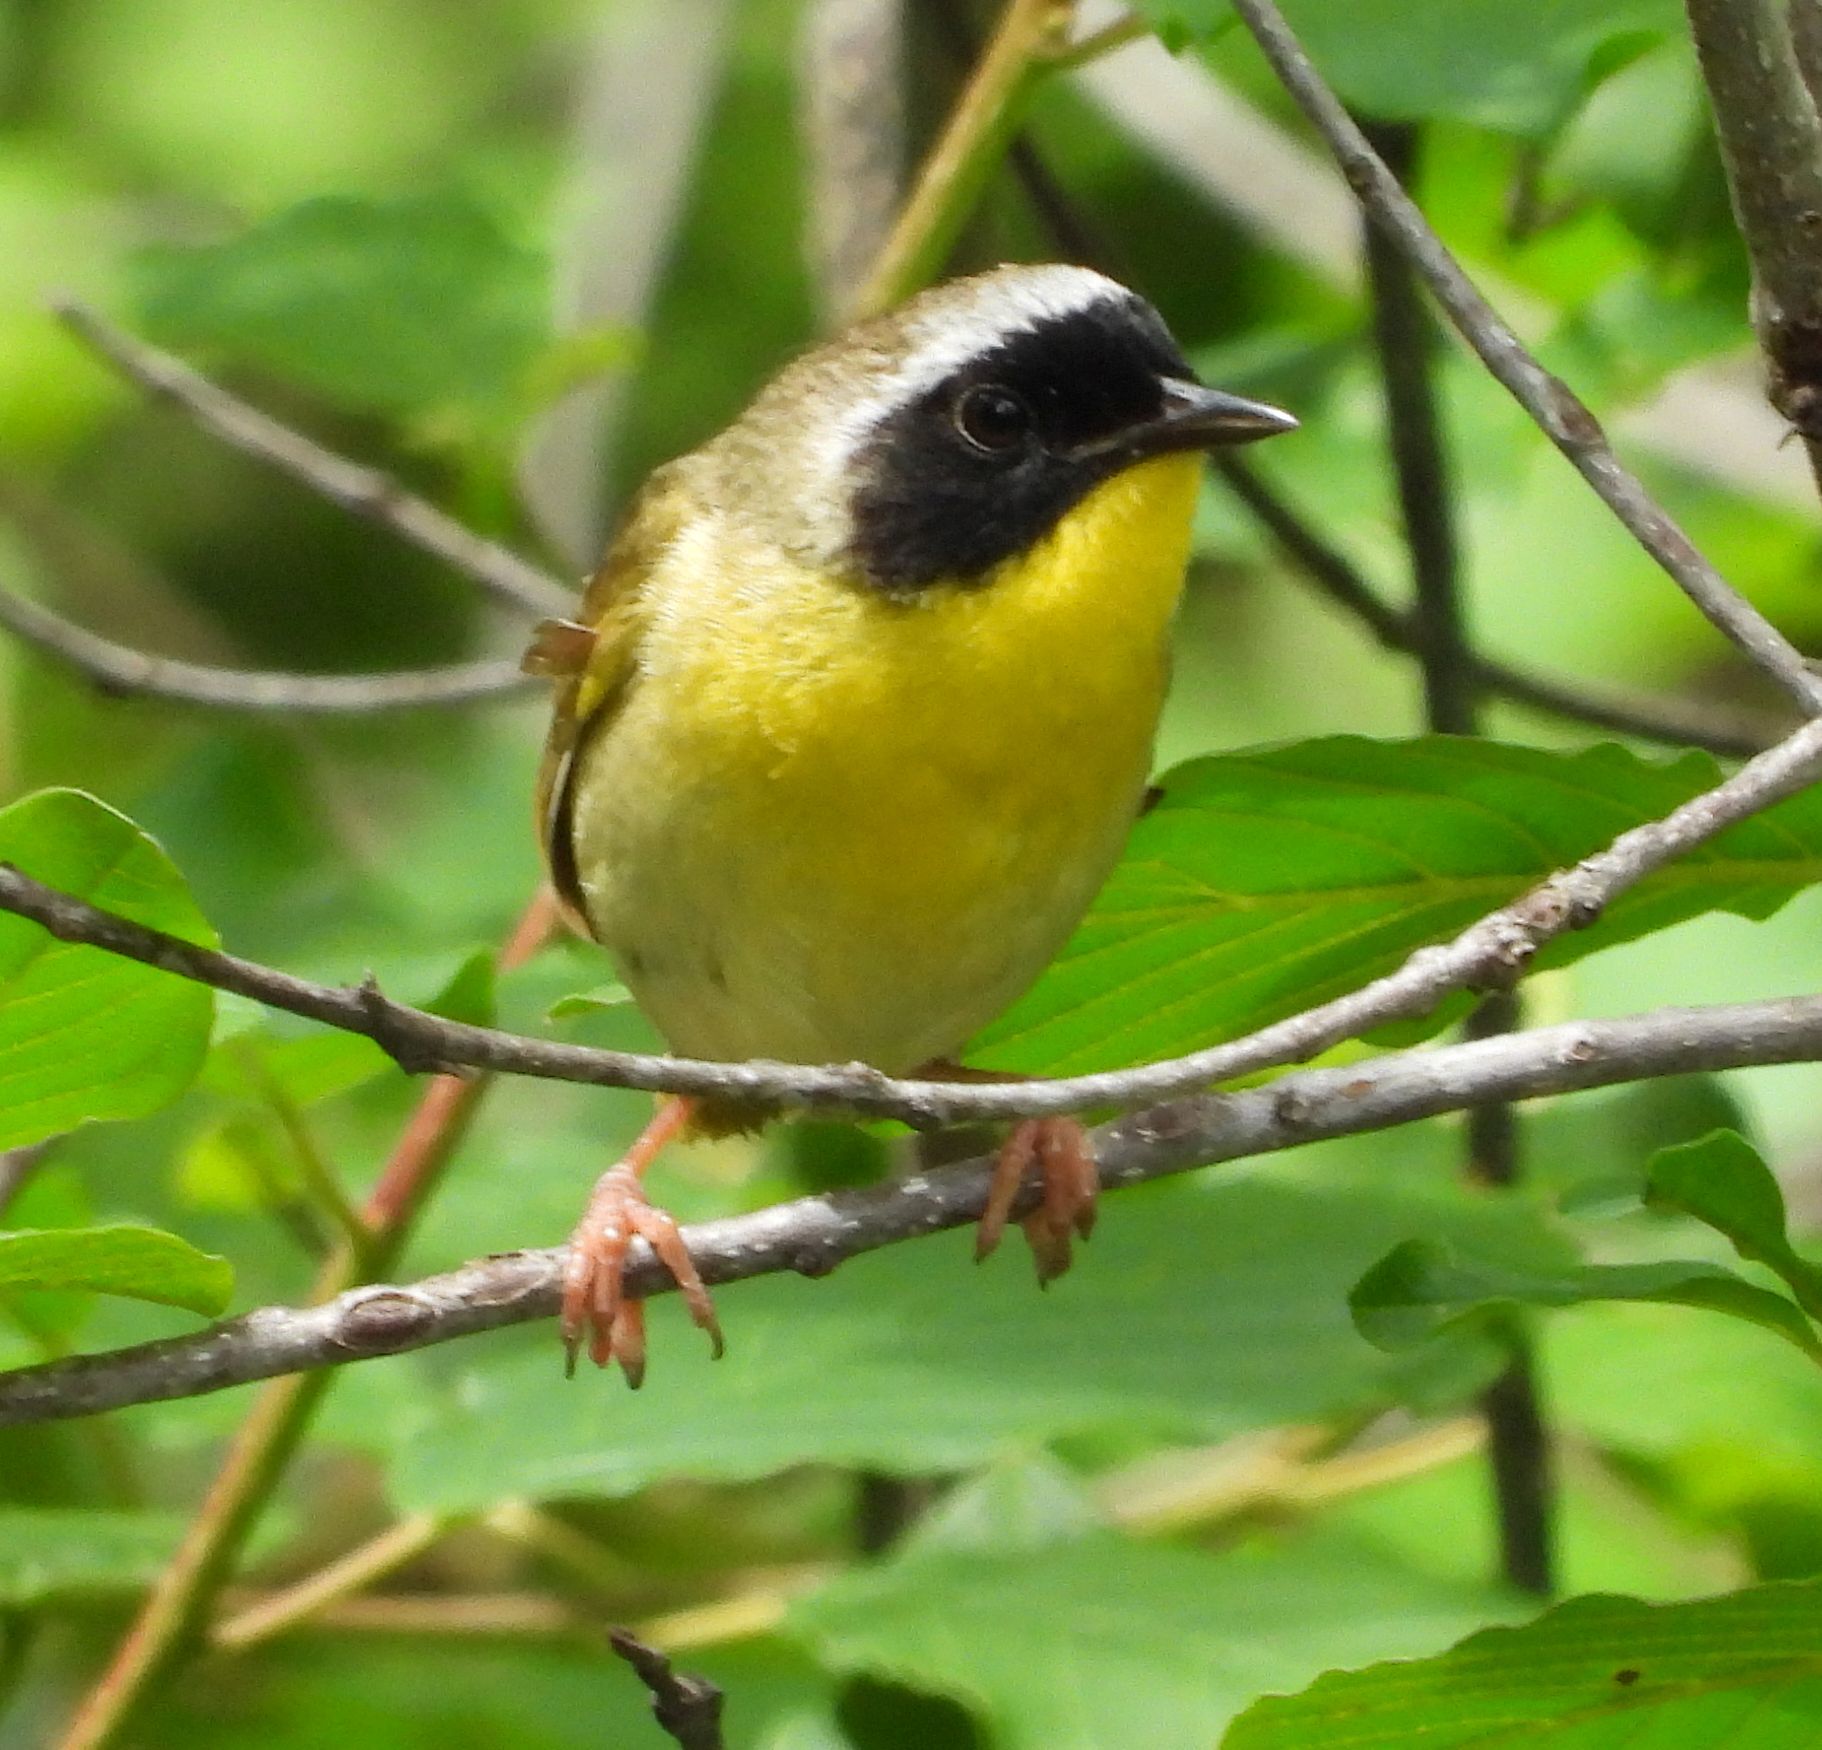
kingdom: Animalia
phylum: Chordata
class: Aves
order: Passeriformes
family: Parulidae
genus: Geothlypis
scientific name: Geothlypis trichas
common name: Common yellowthroat
